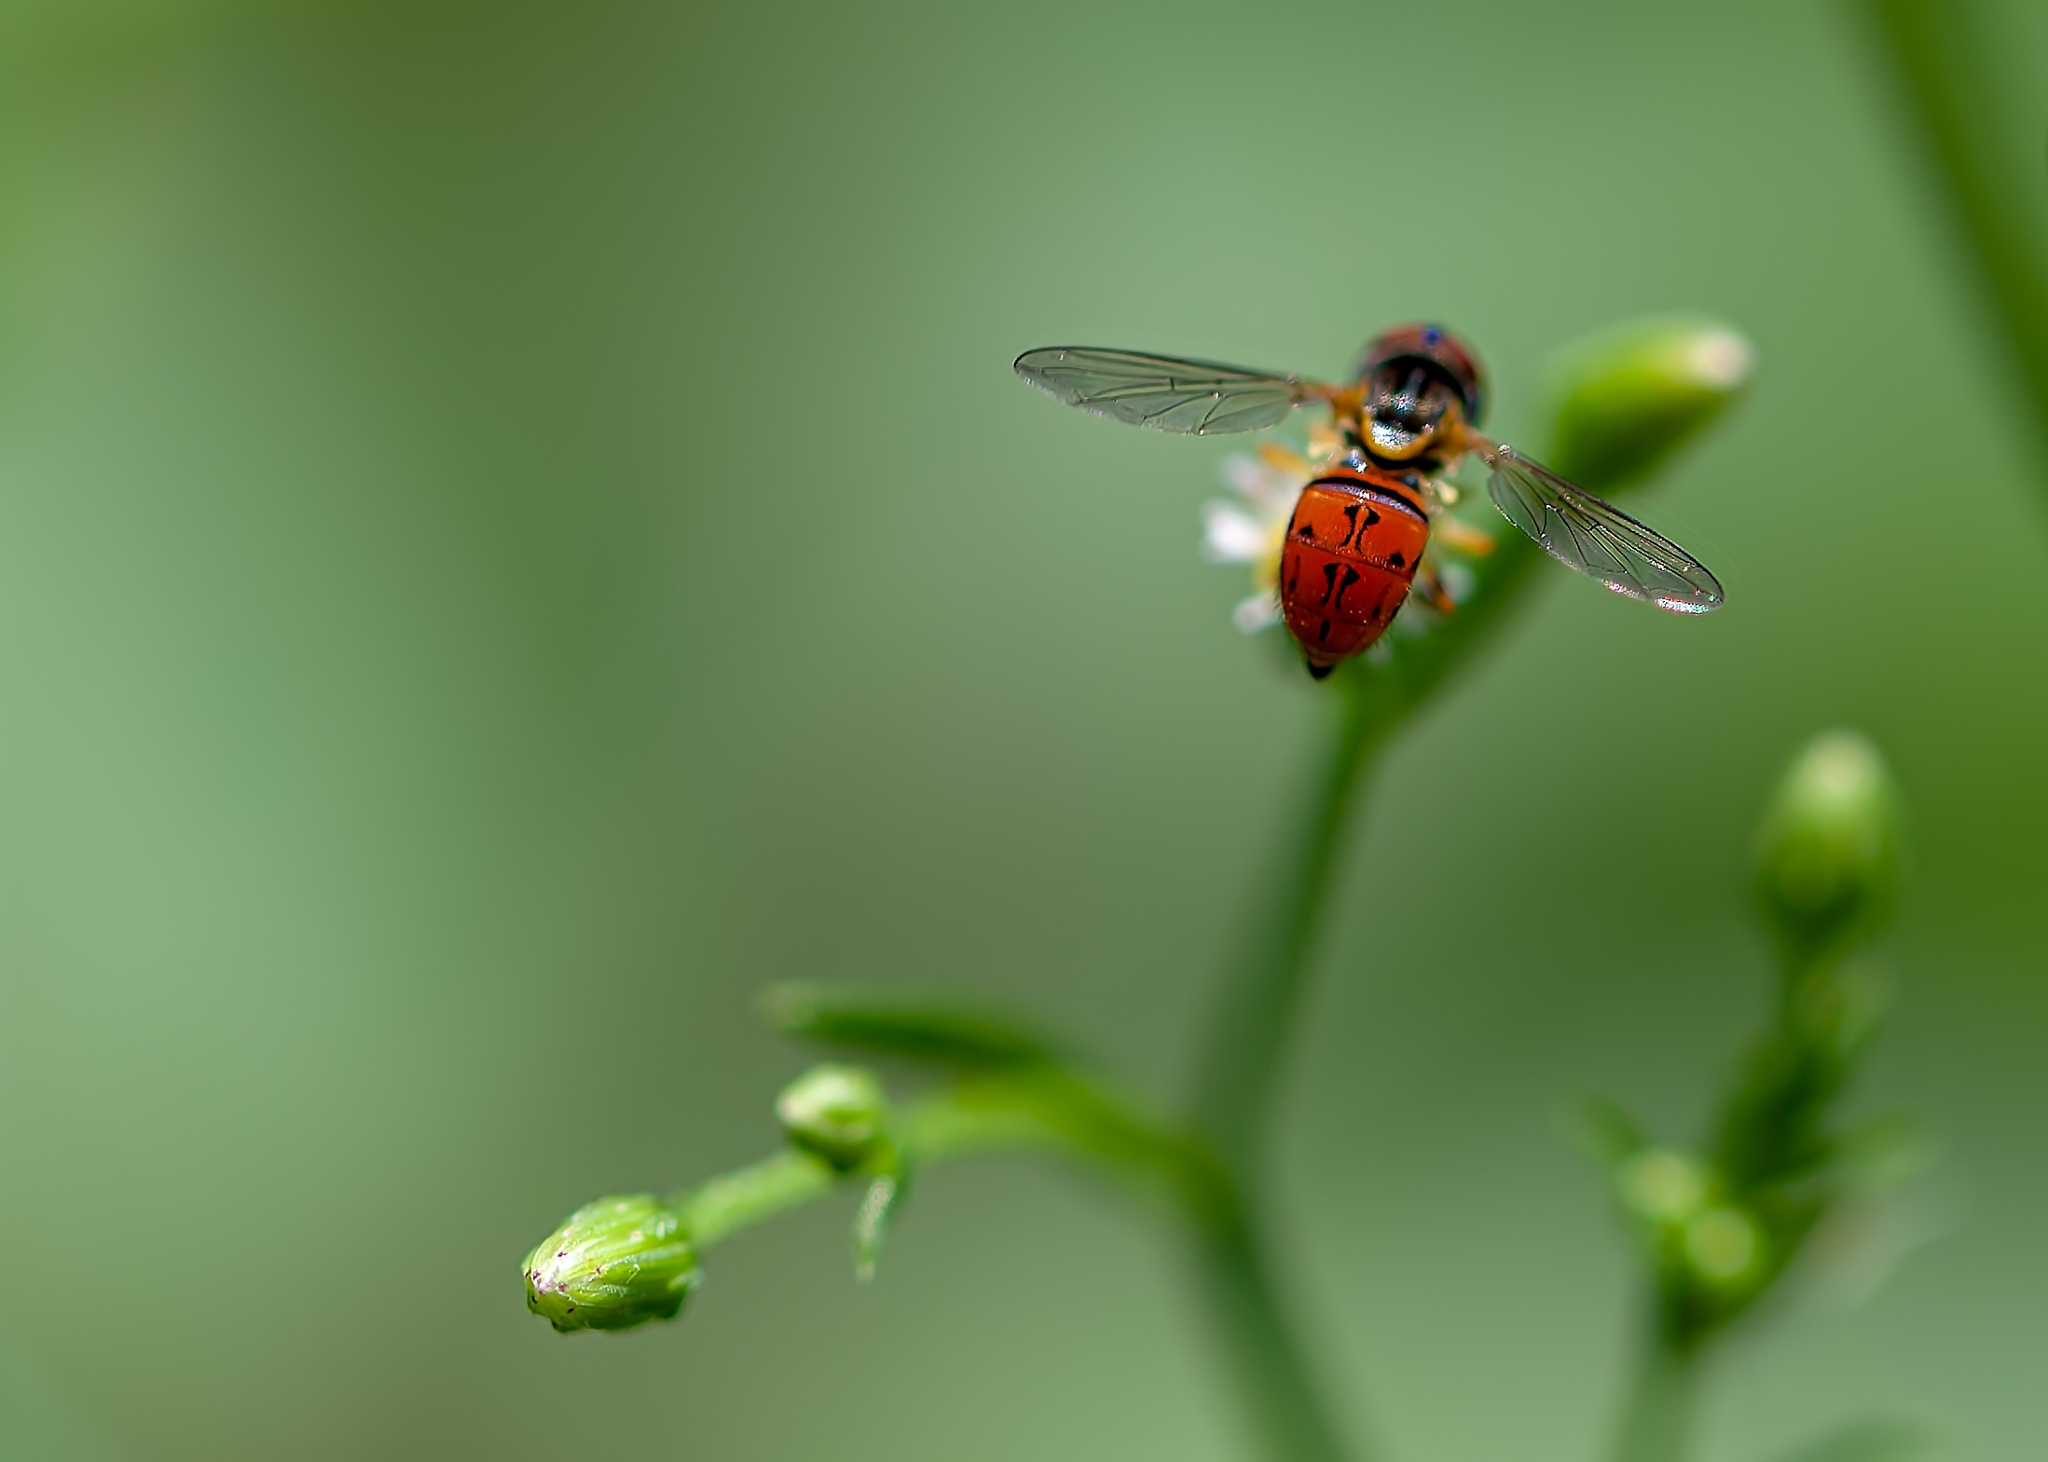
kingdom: Animalia
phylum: Arthropoda
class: Insecta
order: Diptera
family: Syrphidae
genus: Toxomerus
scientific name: Toxomerus boscii
